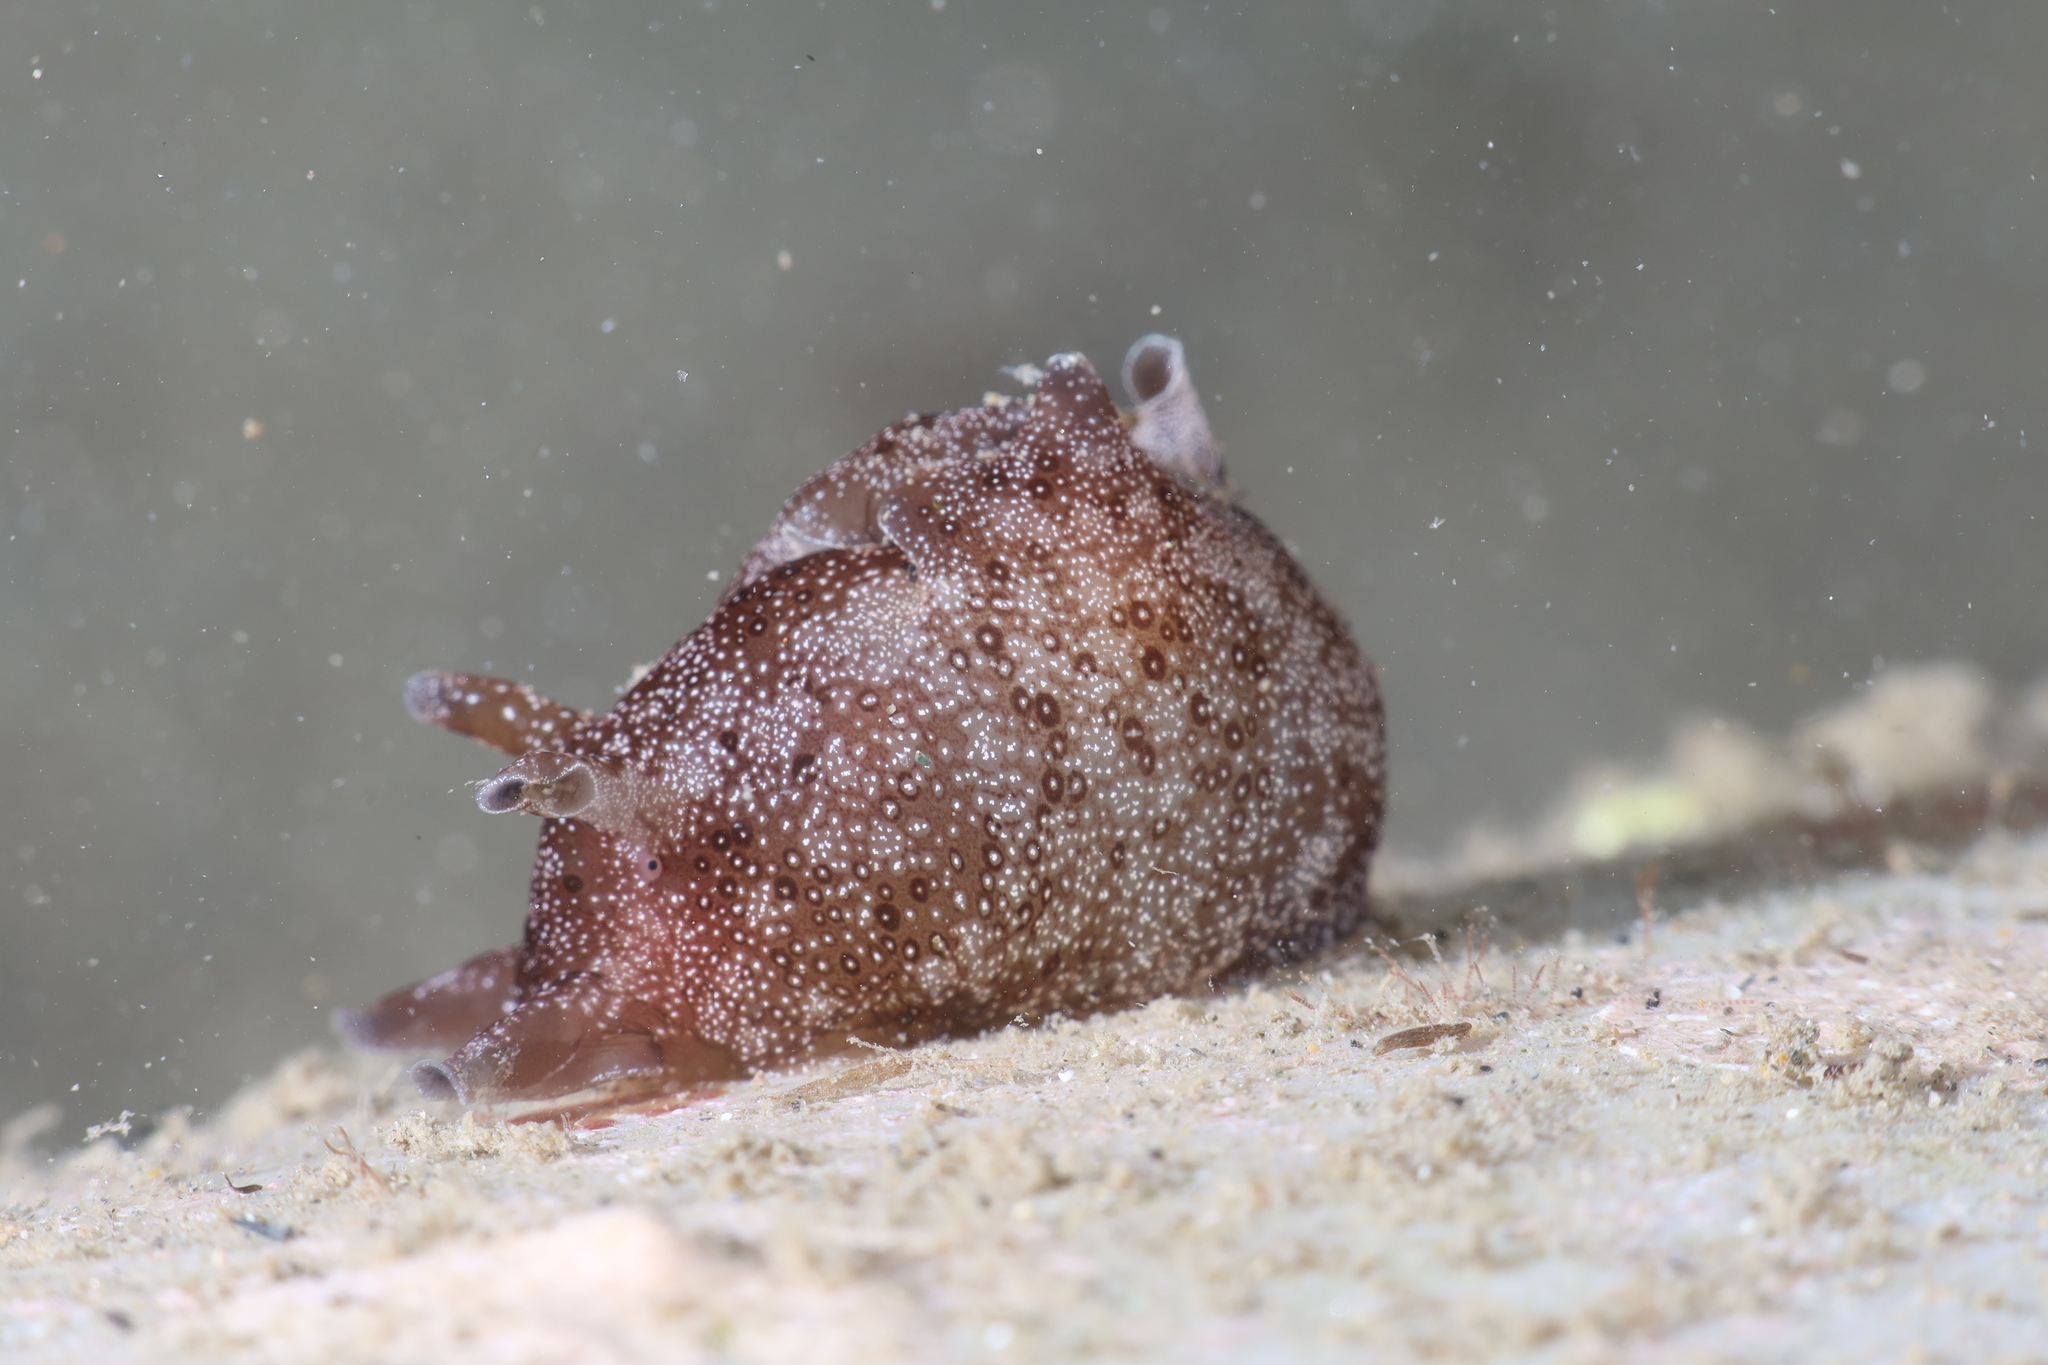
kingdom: Animalia
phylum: Mollusca
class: Gastropoda
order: Aplysiida
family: Aplysiidae
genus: Aplysia
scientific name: Aplysia punctata
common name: Common sea hare
